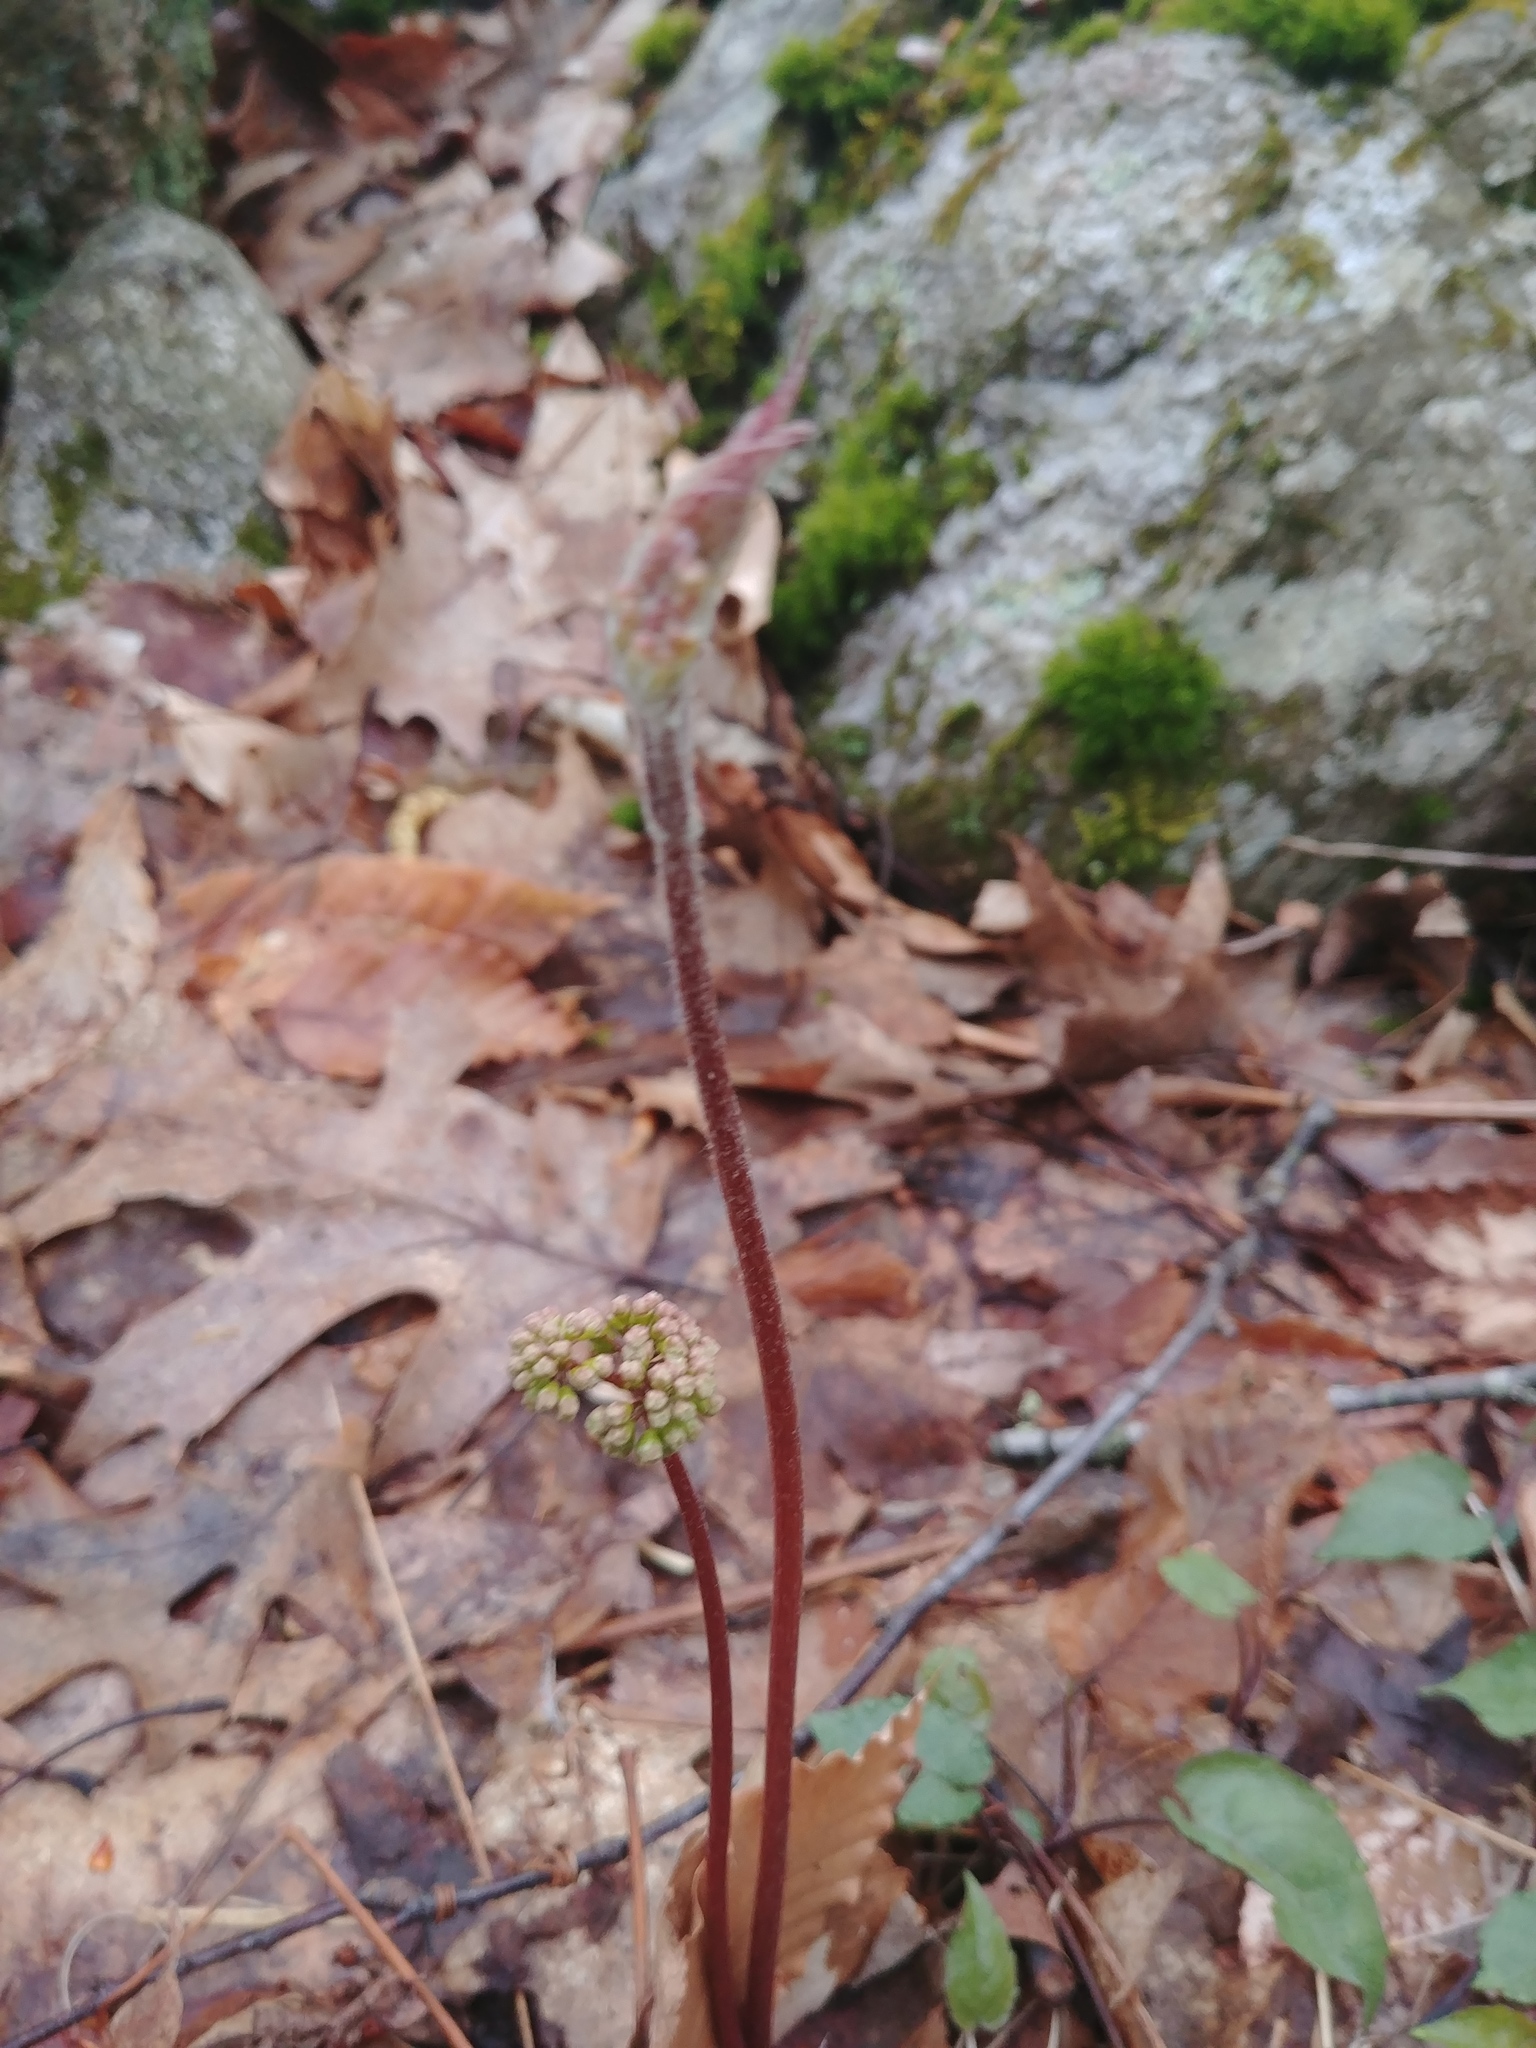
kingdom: Plantae
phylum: Tracheophyta
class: Magnoliopsida
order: Apiales
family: Araliaceae
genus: Aralia
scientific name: Aralia nudicaulis
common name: Wild sarsaparilla
